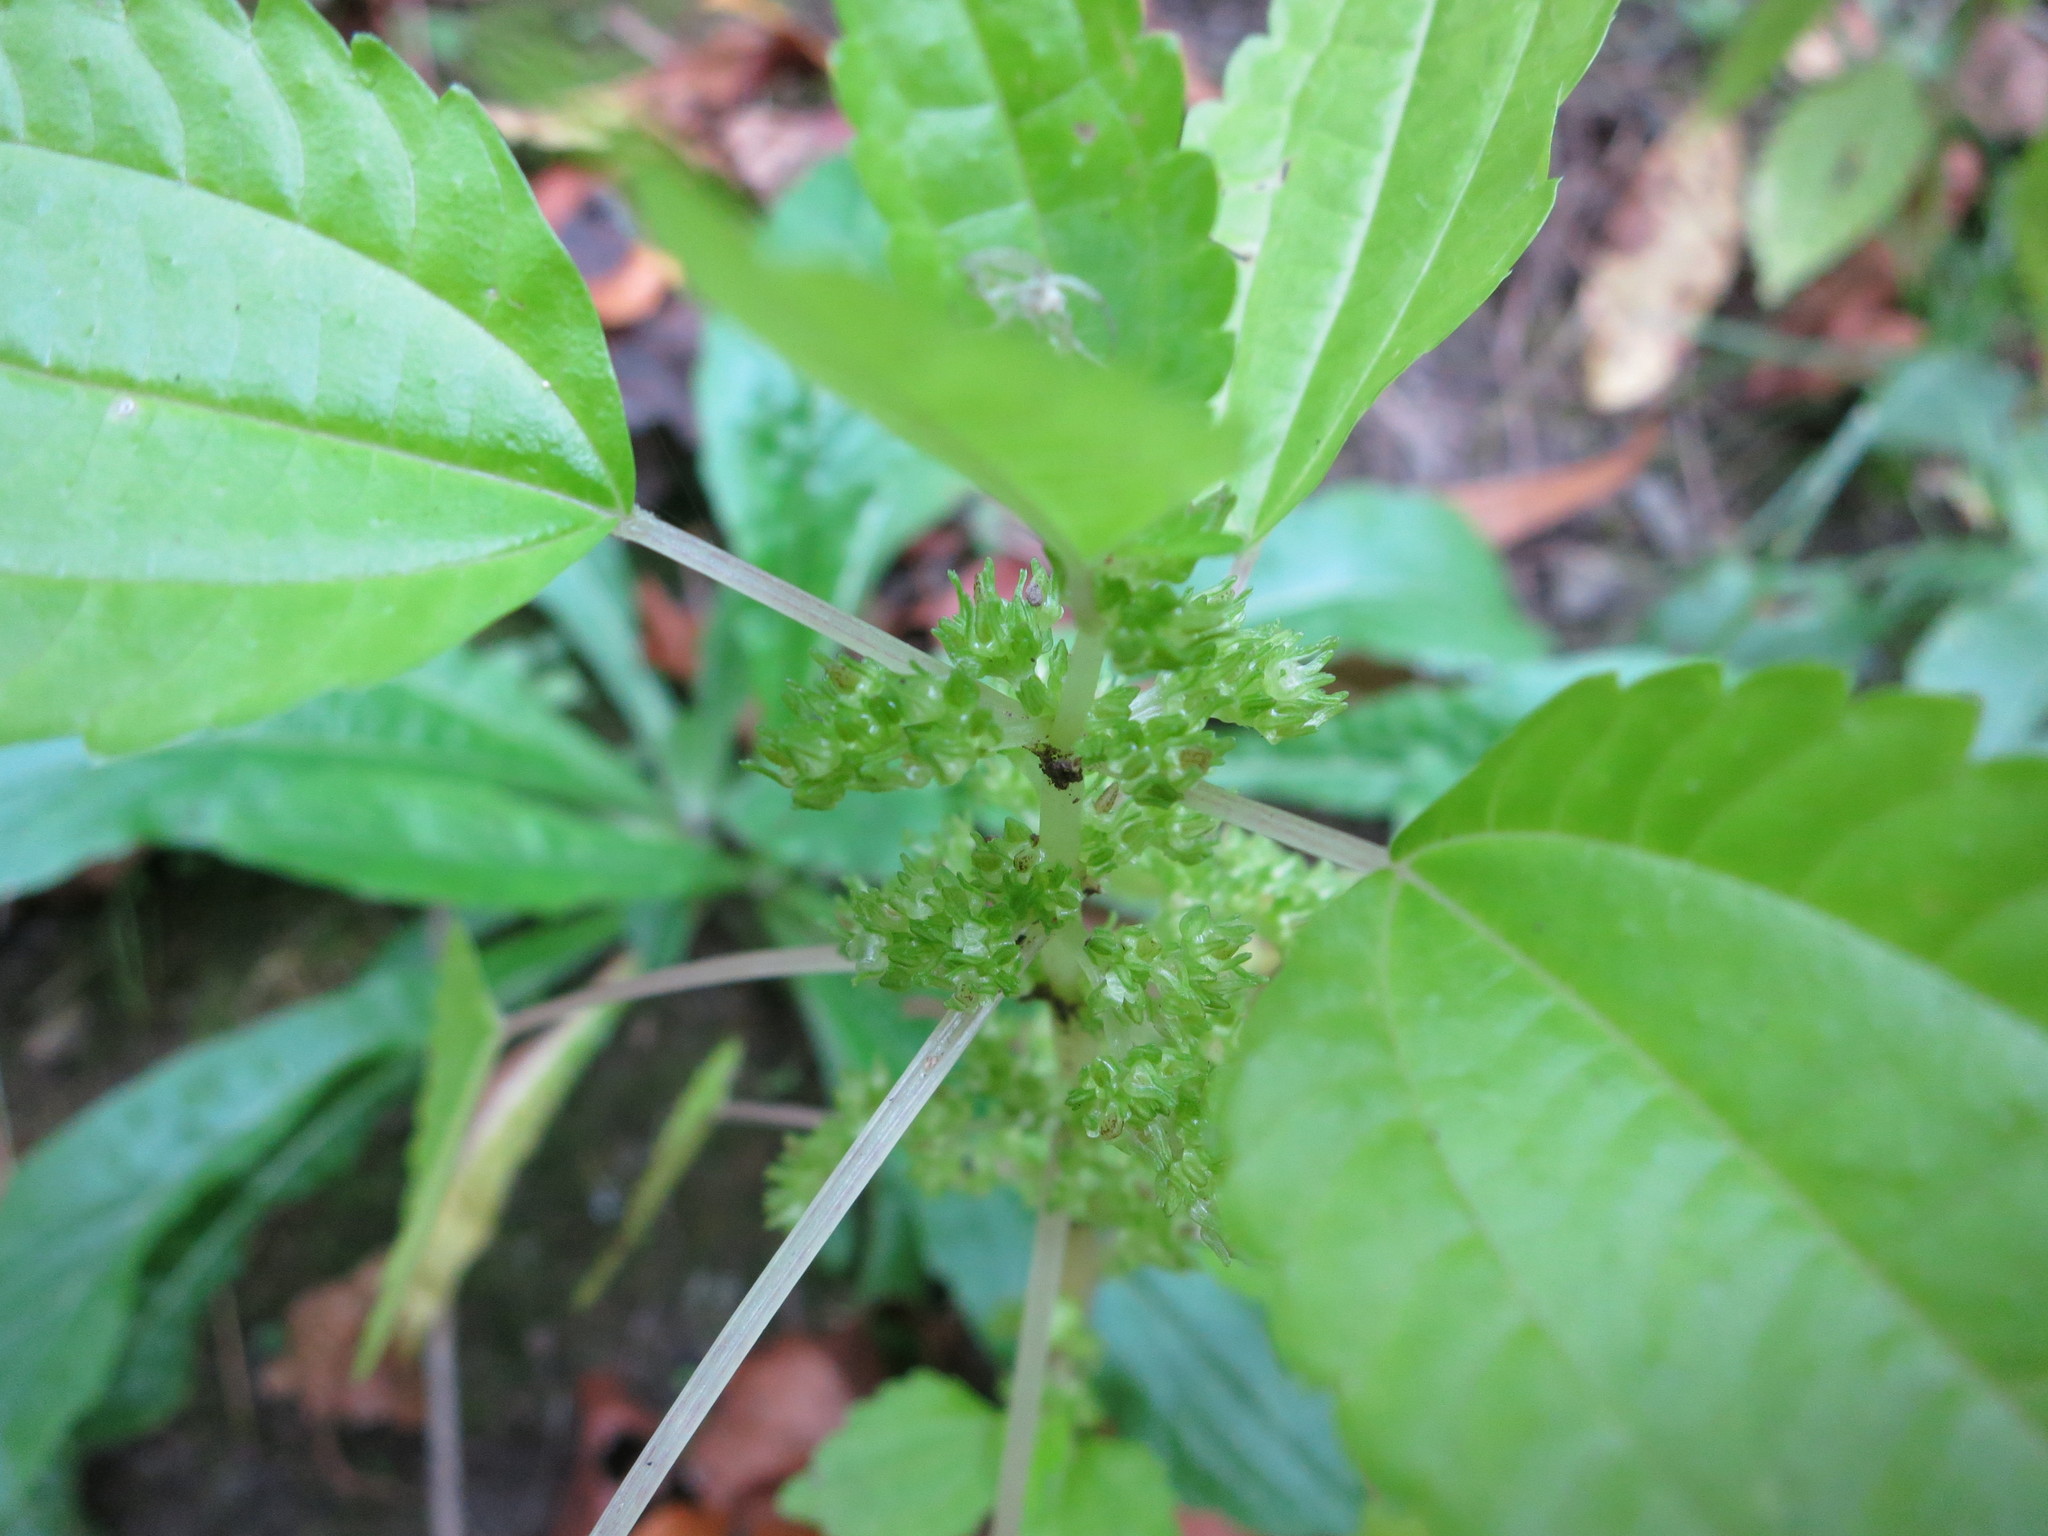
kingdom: Plantae
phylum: Tracheophyta
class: Magnoliopsida
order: Rosales
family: Urticaceae
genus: Pilea
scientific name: Pilea pumila
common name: Clearweed
